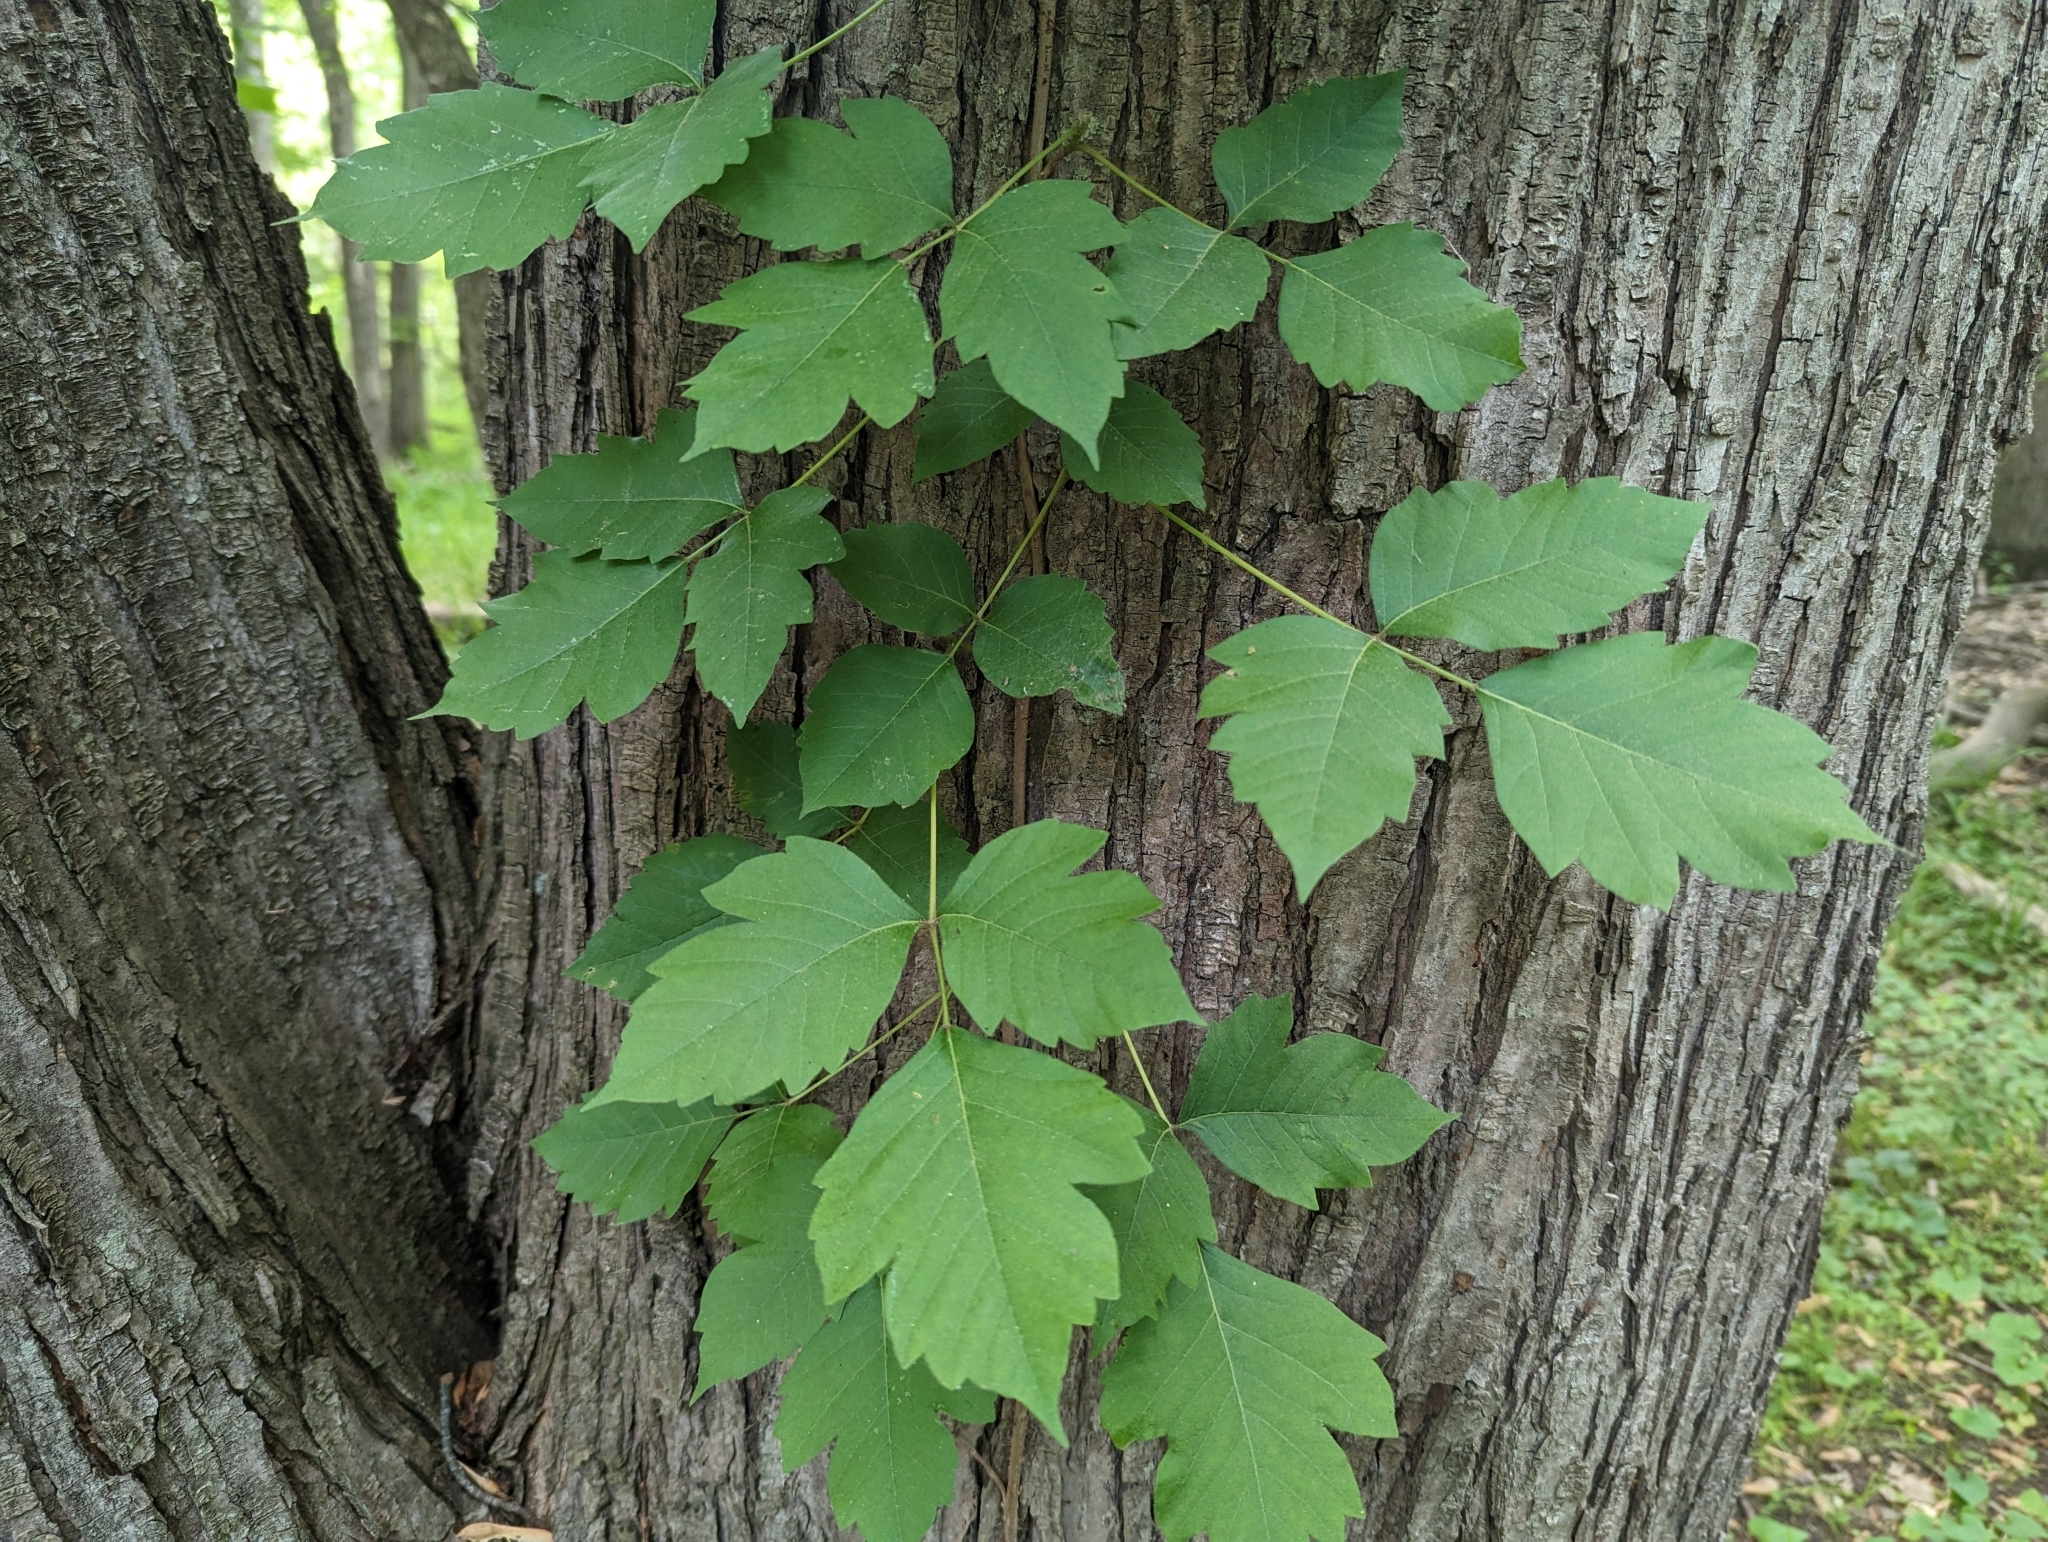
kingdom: Plantae
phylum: Tracheophyta
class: Magnoliopsida
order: Sapindales
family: Anacardiaceae
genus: Toxicodendron
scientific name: Toxicodendron radicans
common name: Poison ivy
